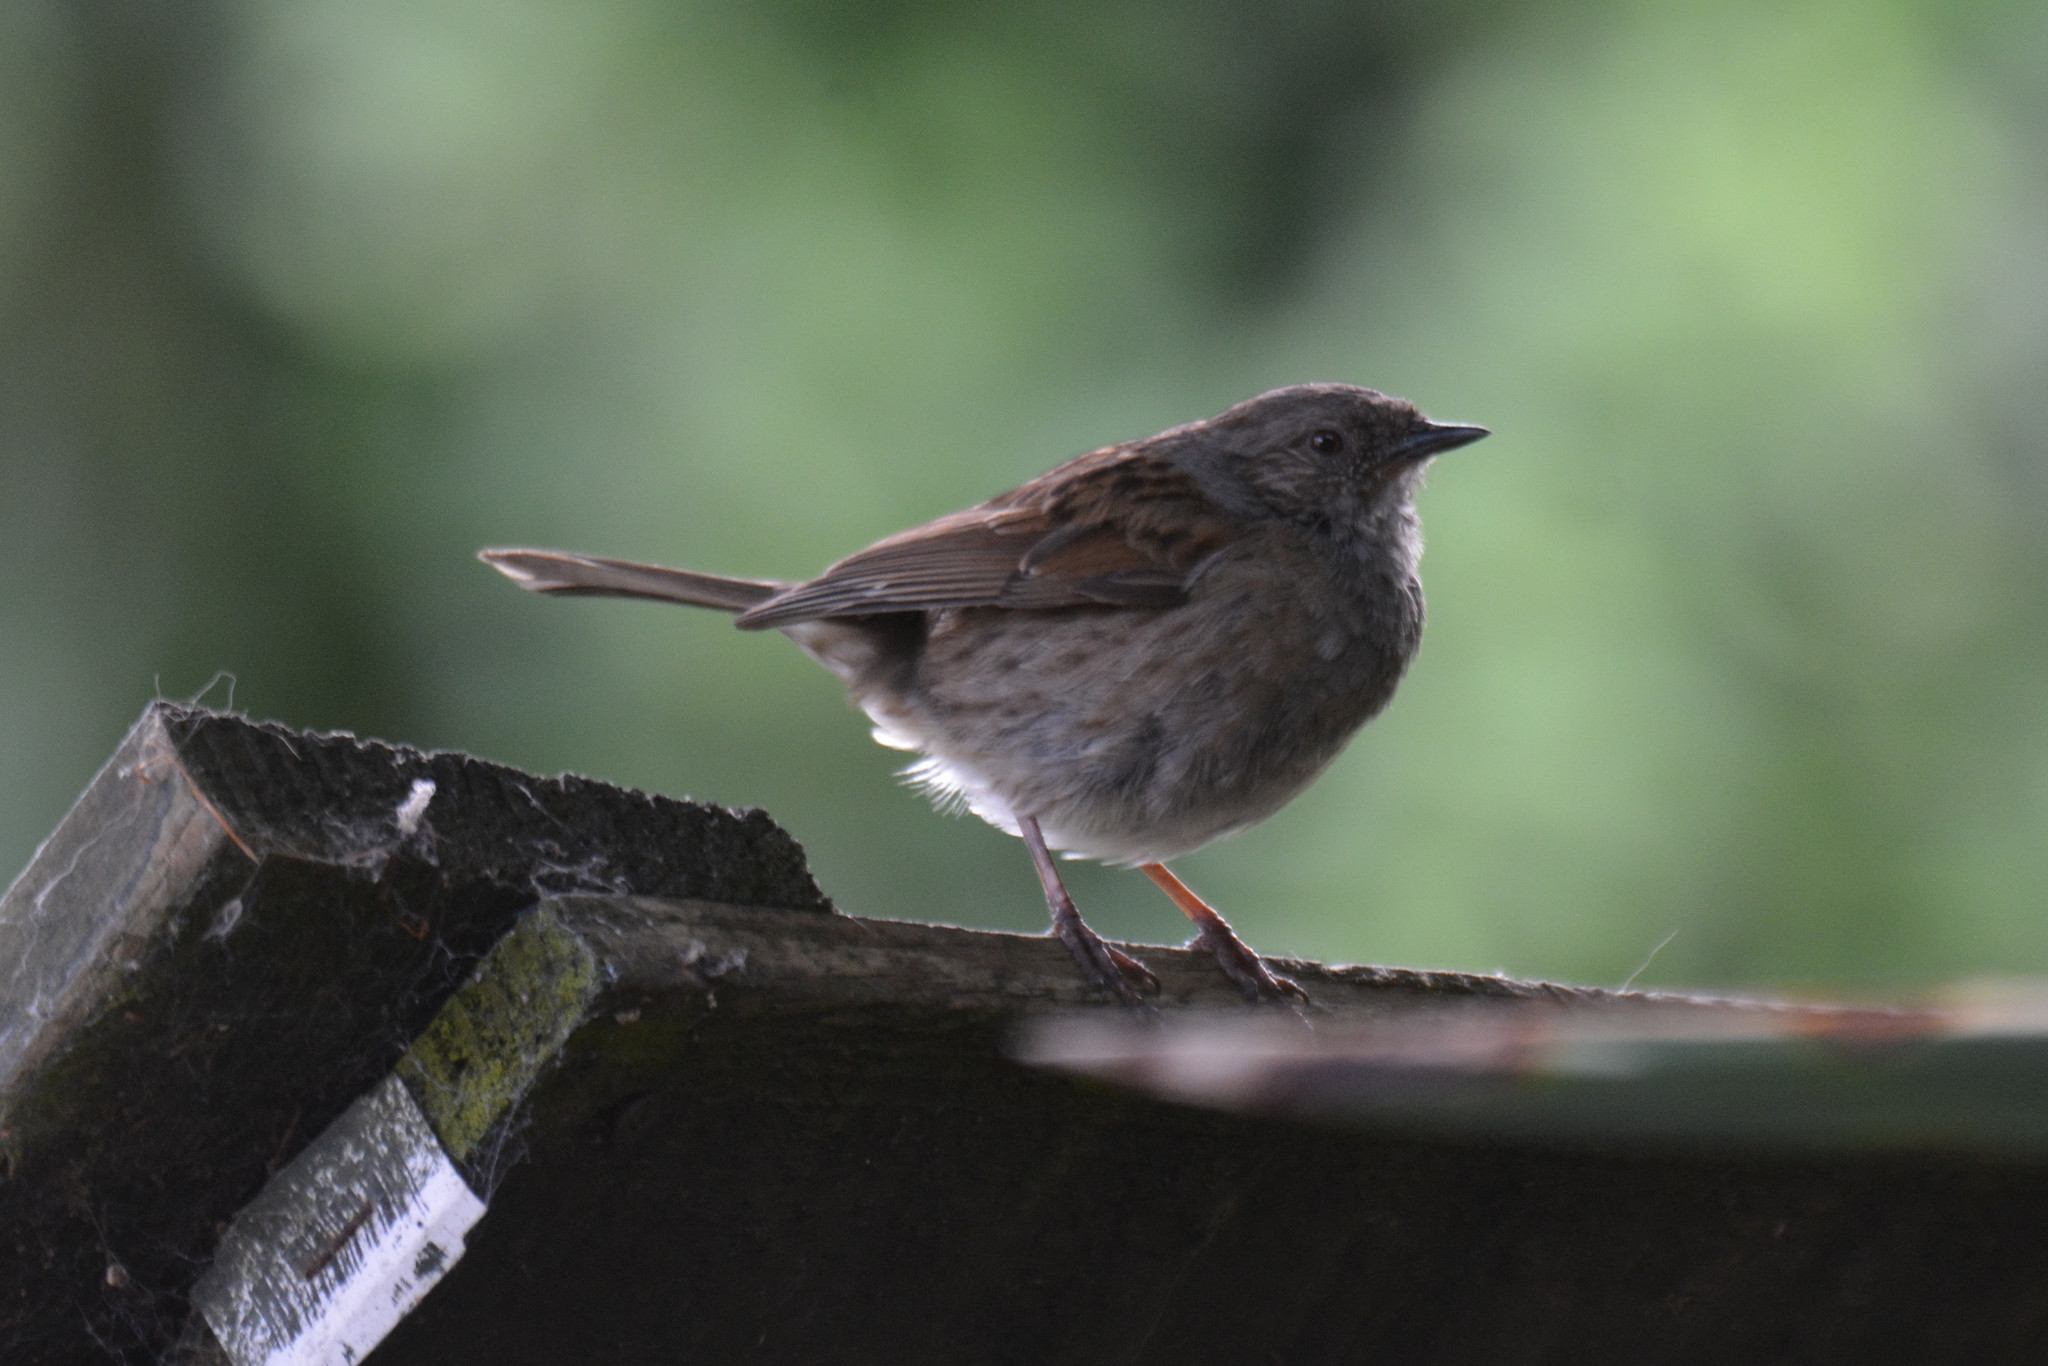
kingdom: Animalia
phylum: Chordata
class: Aves
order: Passeriformes
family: Prunellidae
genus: Prunella
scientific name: Prunella modularis
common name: Dunnock
